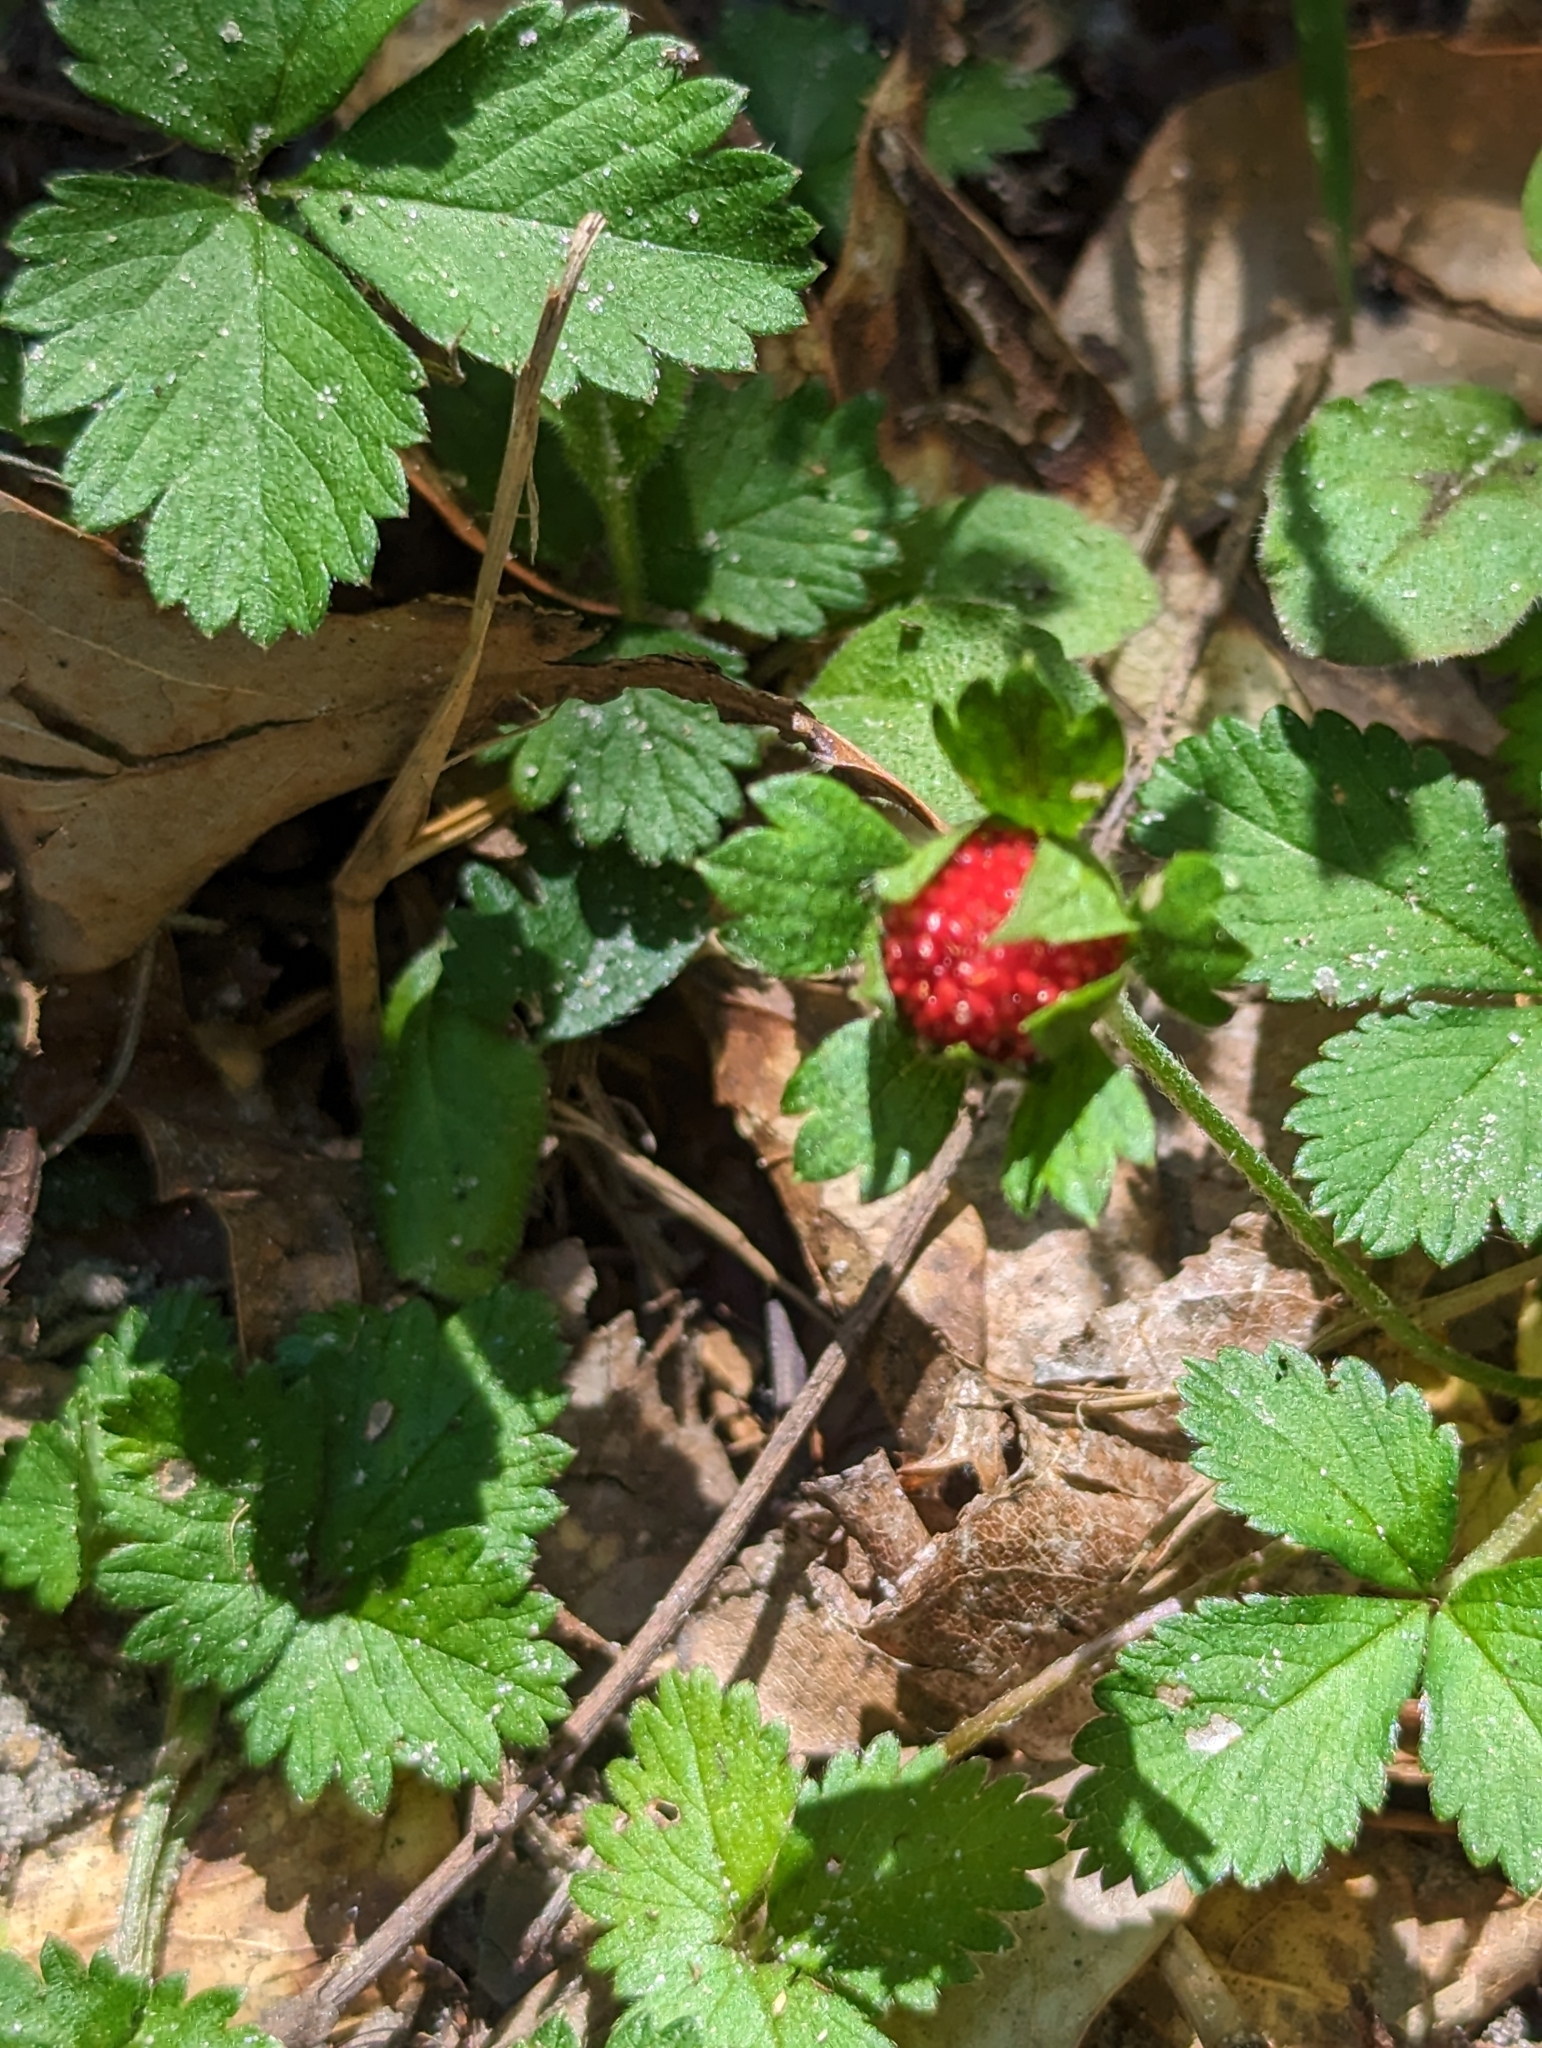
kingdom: Plantae
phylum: Tracheophyta
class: Magnoliopsida
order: Rosales
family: Rosaceae
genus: Potentilla
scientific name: Potentilla indica
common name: Yellow-flowered strawberry
